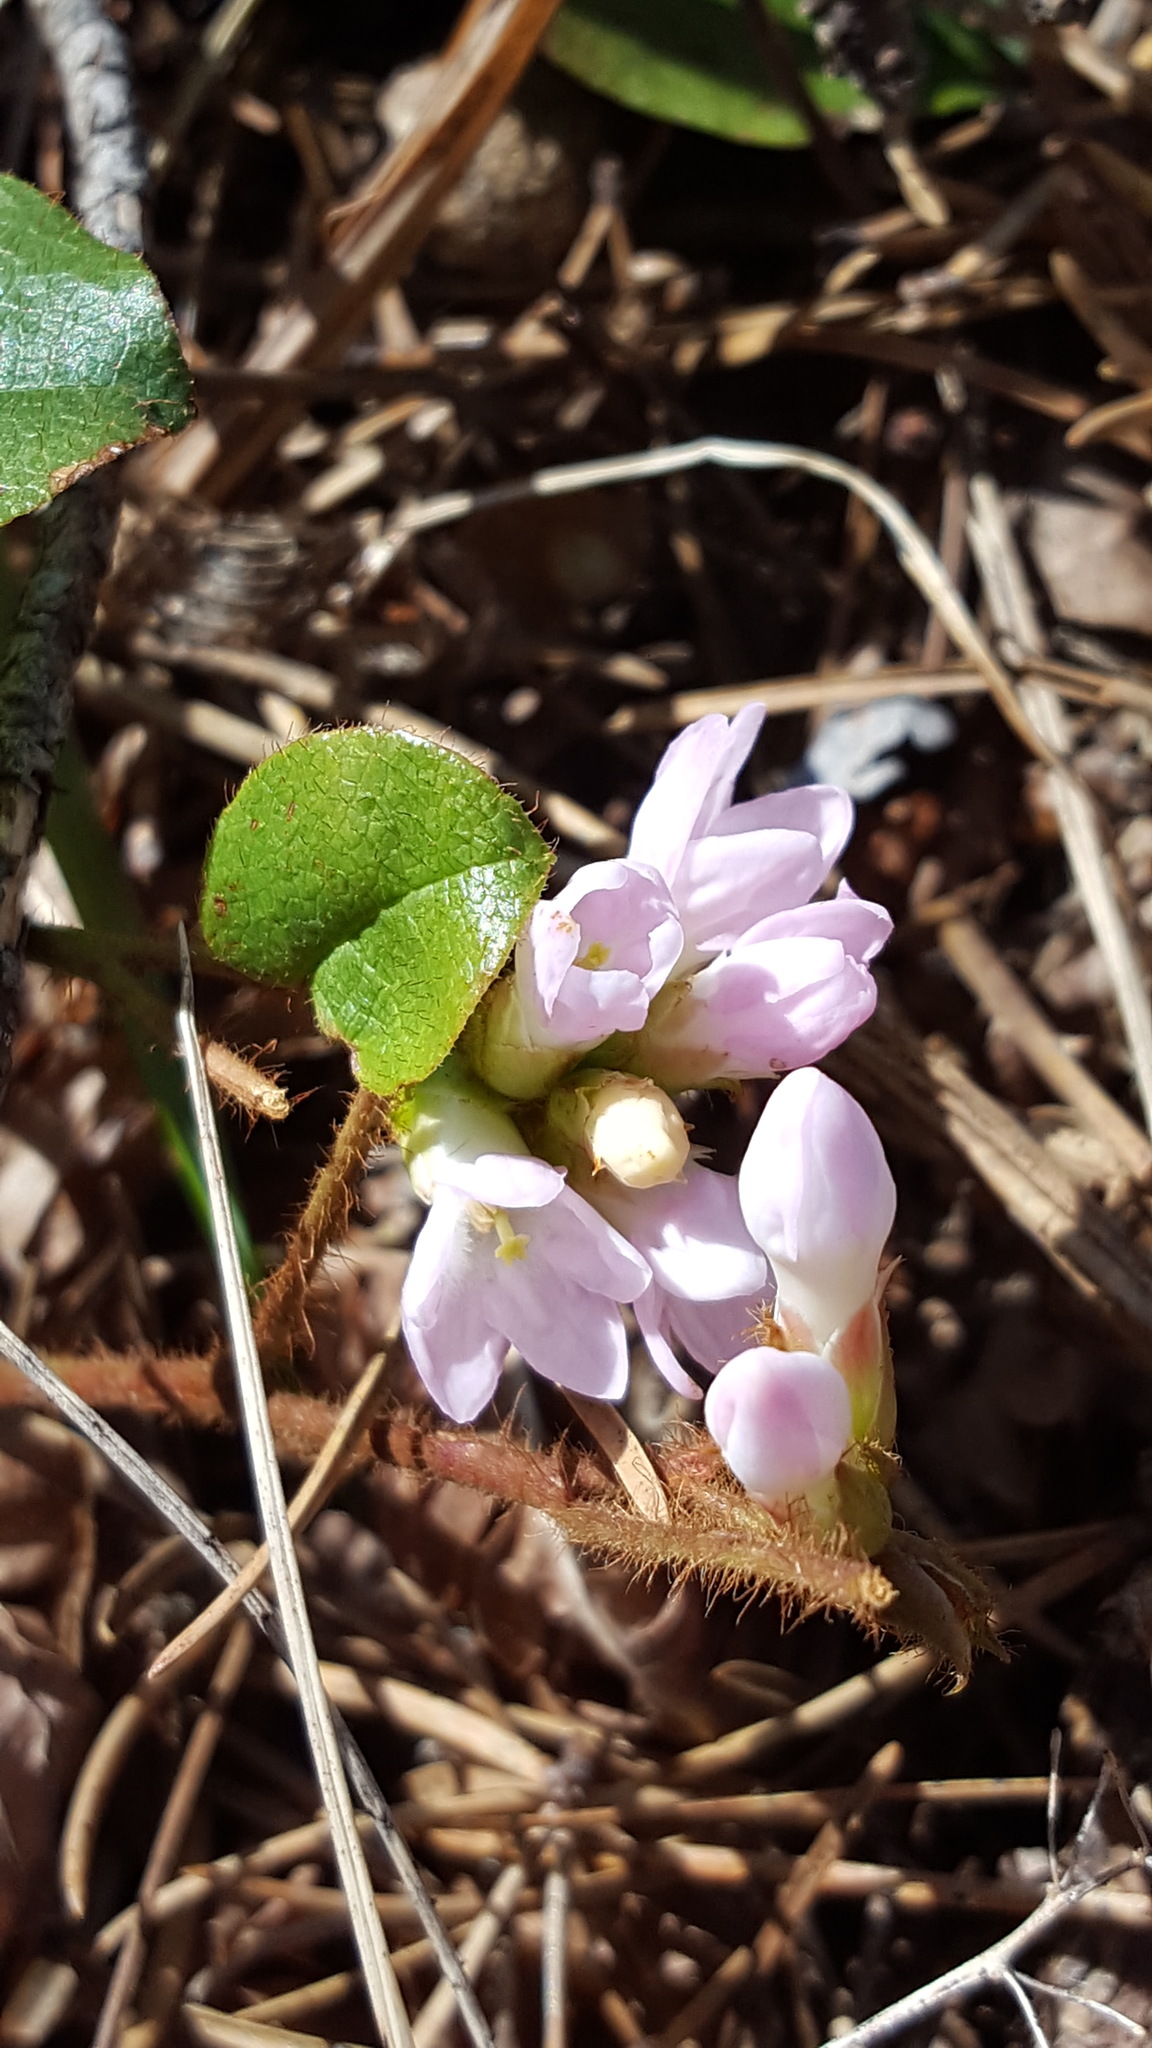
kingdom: Plantae
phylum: Tracheophyta
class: Magnoliopsida
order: Ericales
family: Ericaceae
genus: Epigaea
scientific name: Epigaea repens
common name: Gravelroot
